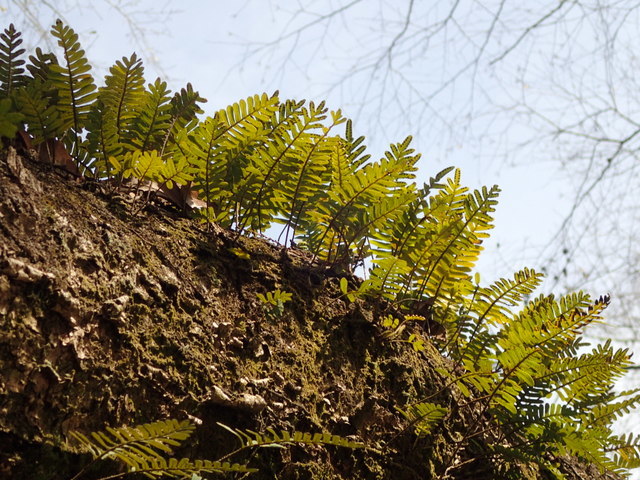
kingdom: Plantae
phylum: Tracheophyta
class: Polypodiopsida
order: Polypodiales
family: Polypodiaceae
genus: Pleopeltis
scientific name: Pleopeltis michauxiana
